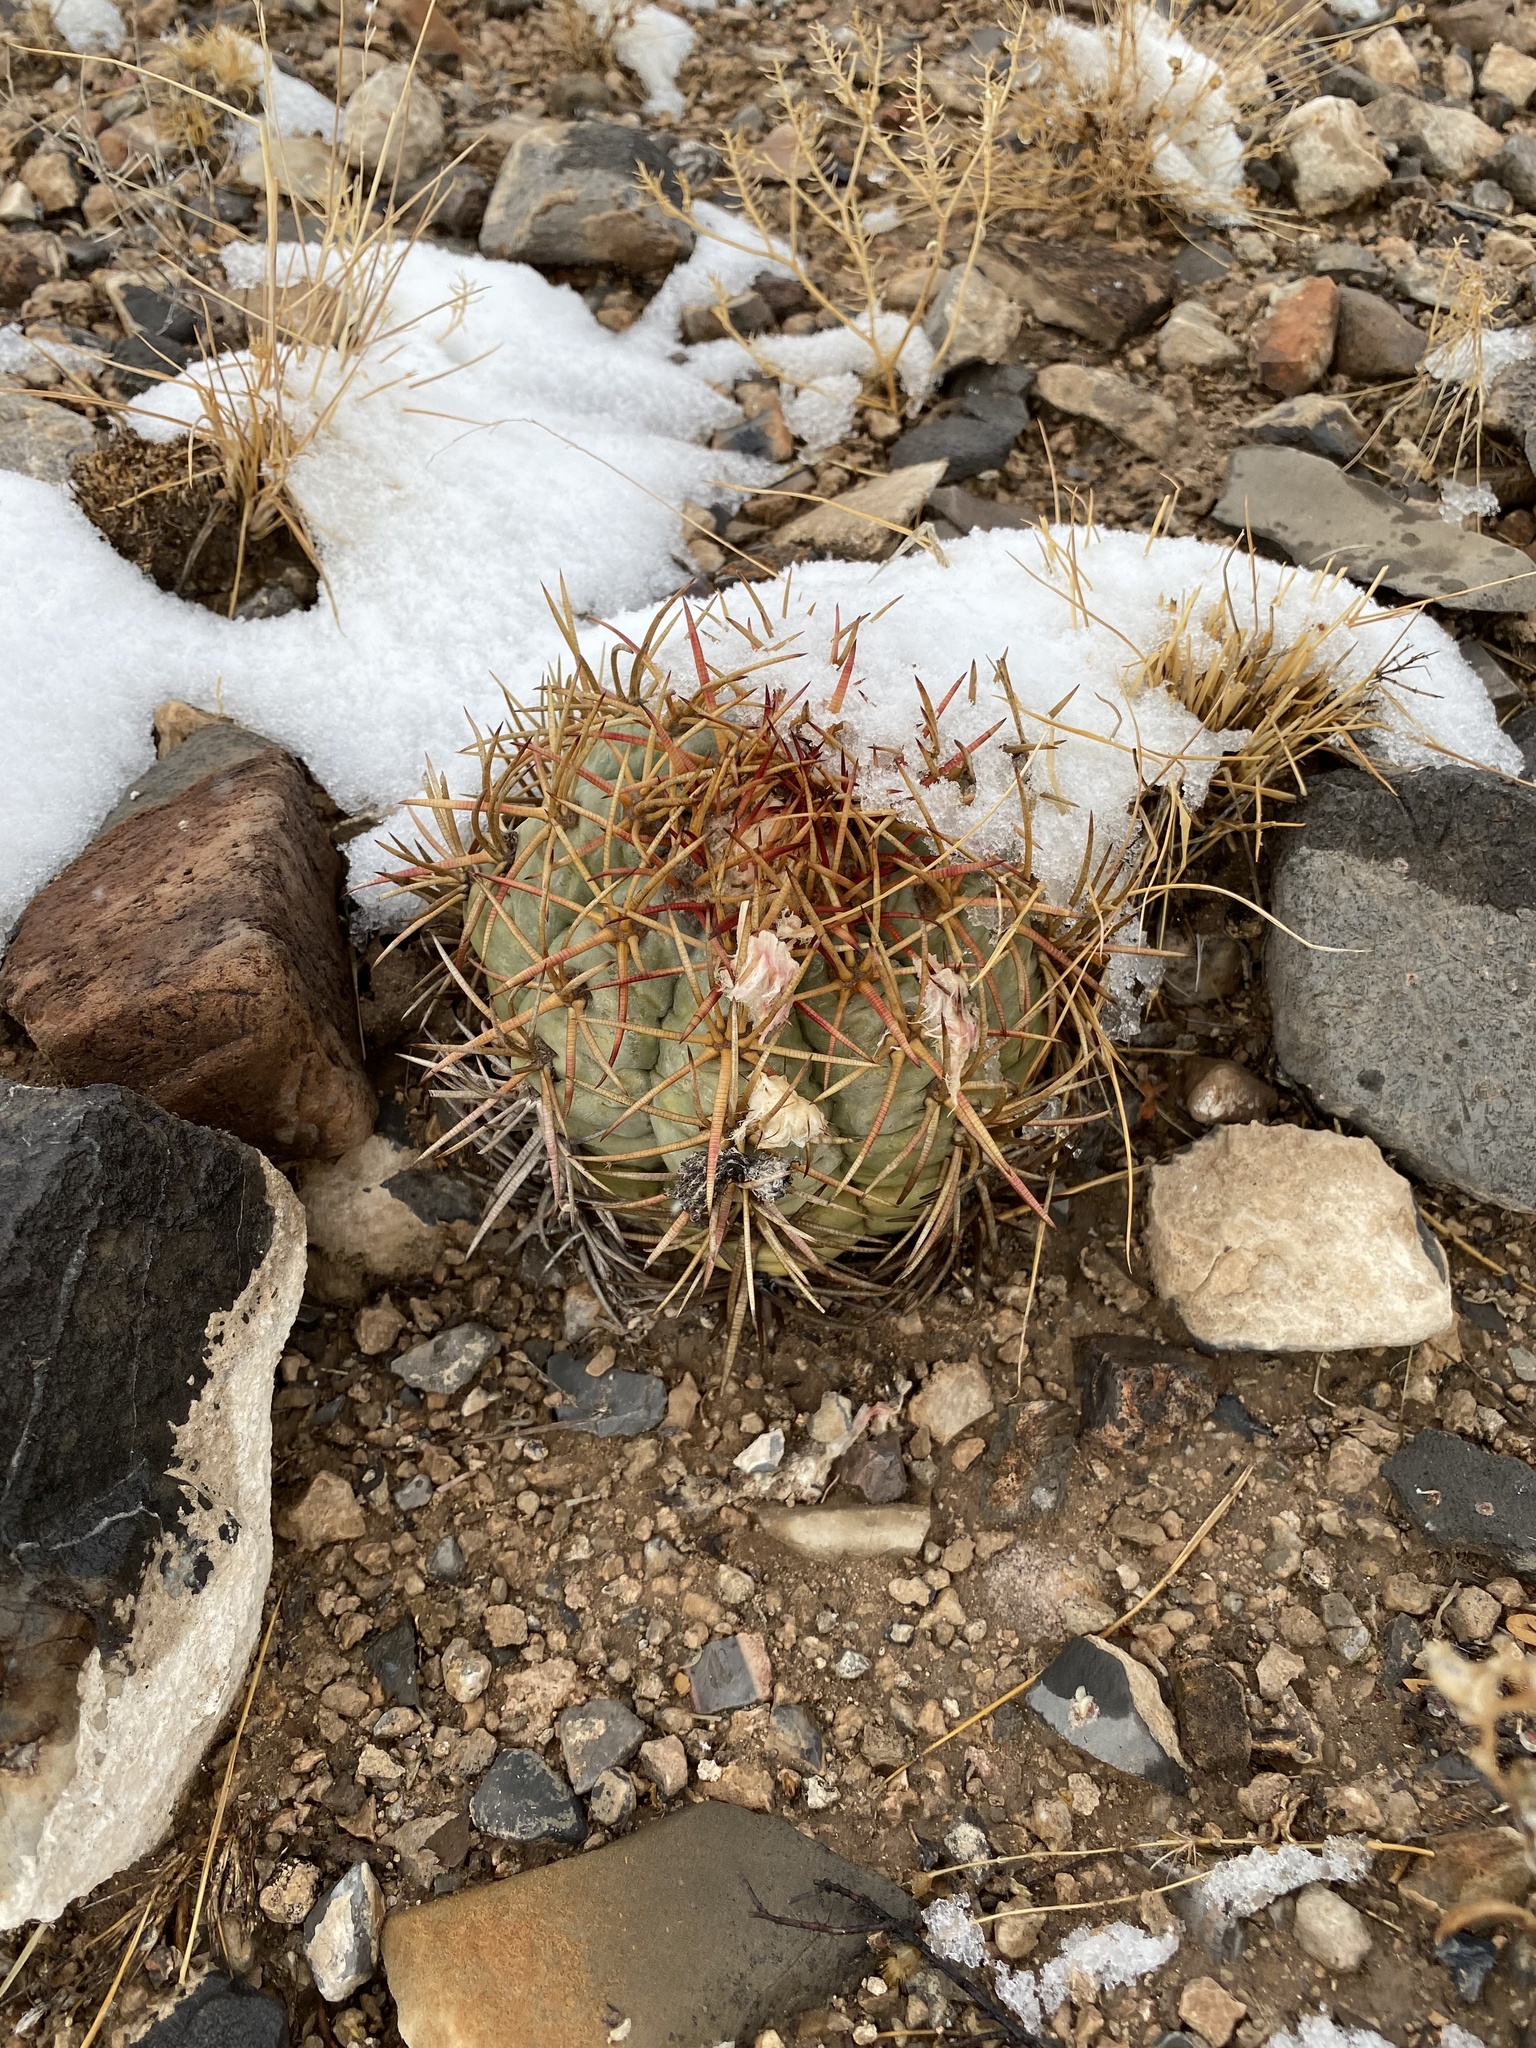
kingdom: Plantae
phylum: Tracheophyta
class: Magnoliopsida
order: Caryophyllales
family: Cactaceae
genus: Echinocactus
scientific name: Echinocactus horizonthalonius
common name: Devilshead
